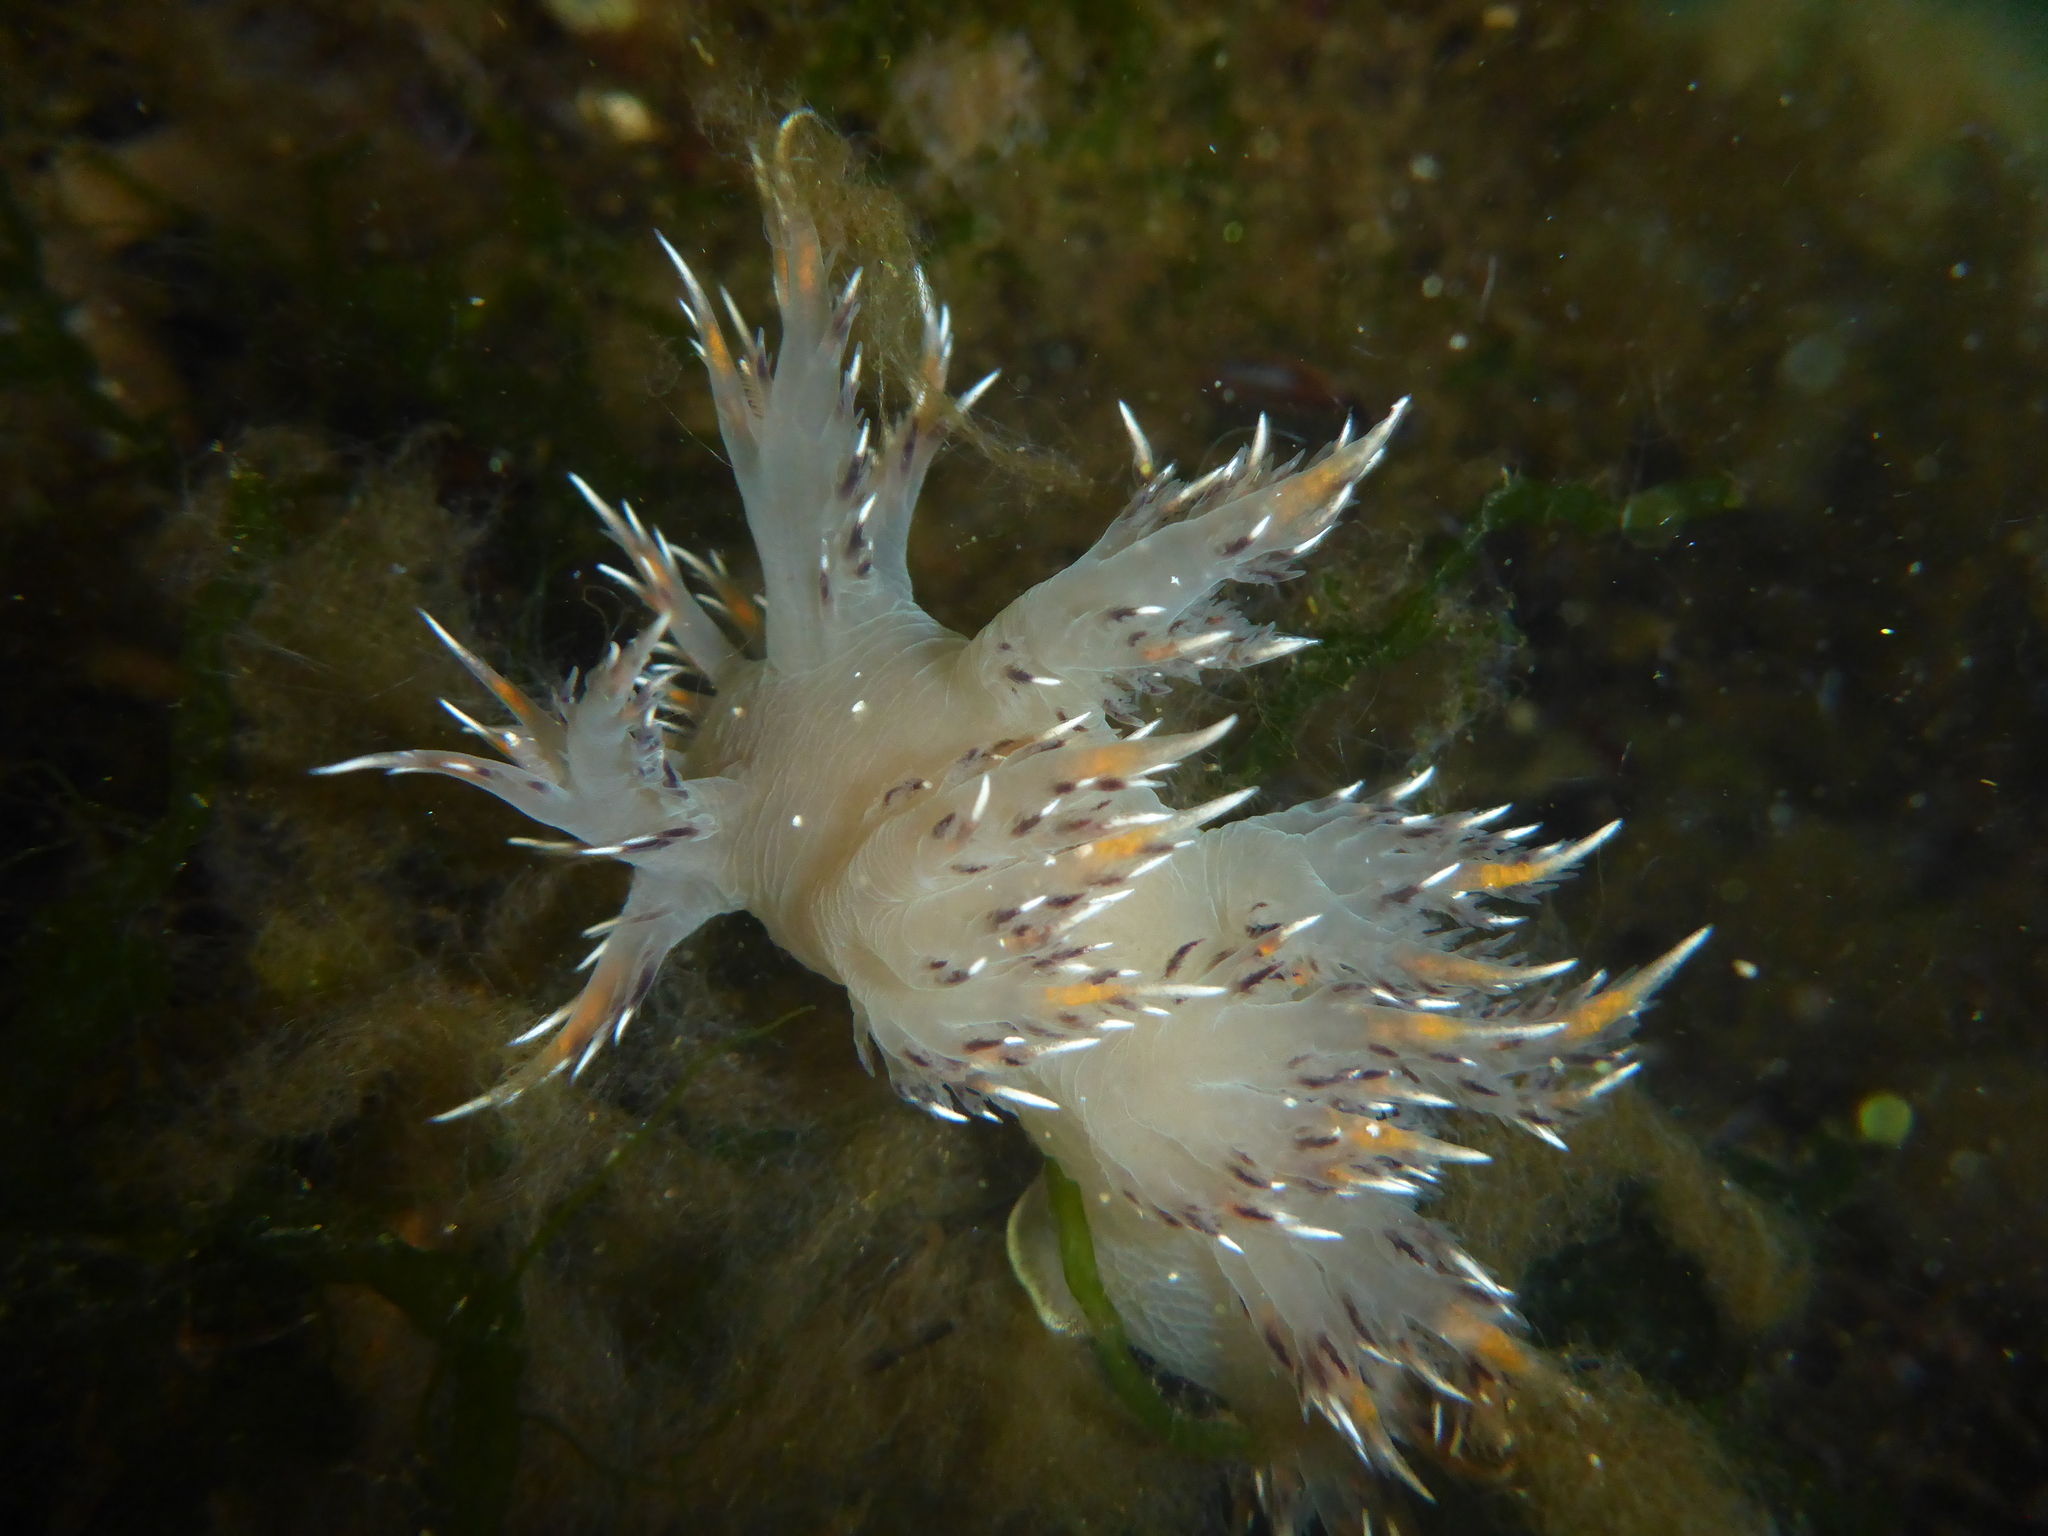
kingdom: Animalia
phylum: Mollusca
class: Gastropoda
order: Nudibranchia
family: Dendronotidae
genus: Dendronotus
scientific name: Dendronotus iris
